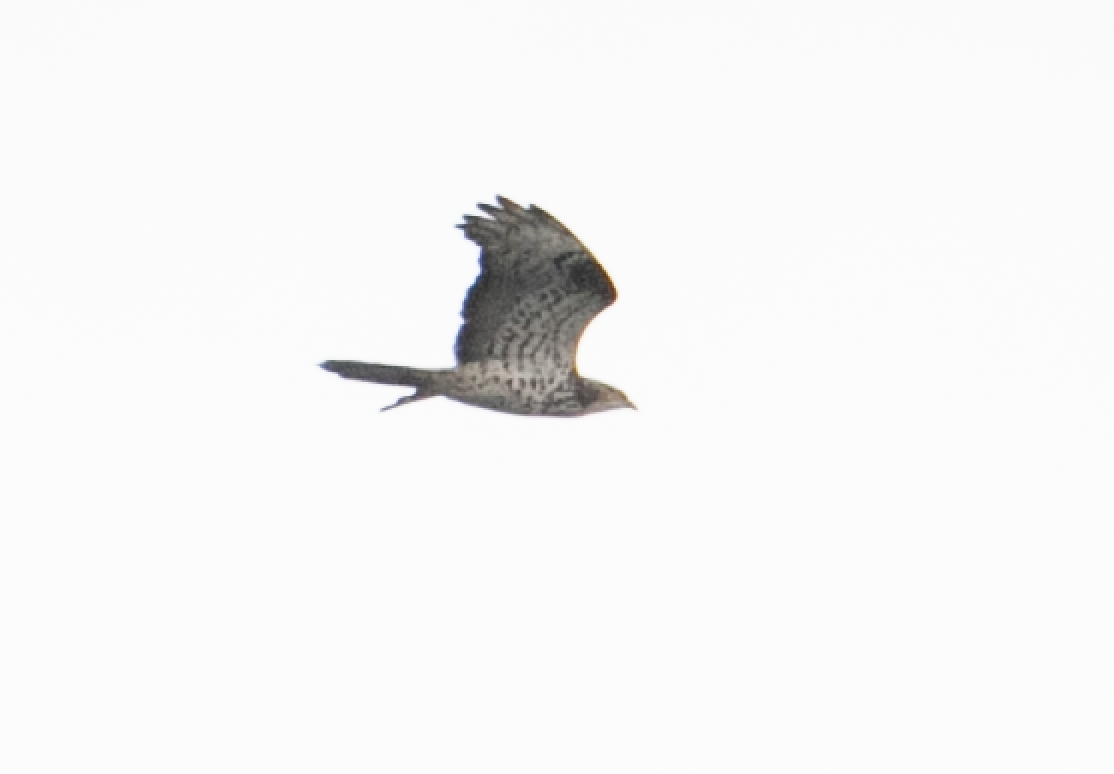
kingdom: Animalia
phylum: Chordata
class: Aves
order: Accipitriformes
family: Accipitridae
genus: Pernis
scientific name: Pernis apivorus
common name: European honey buzzard
